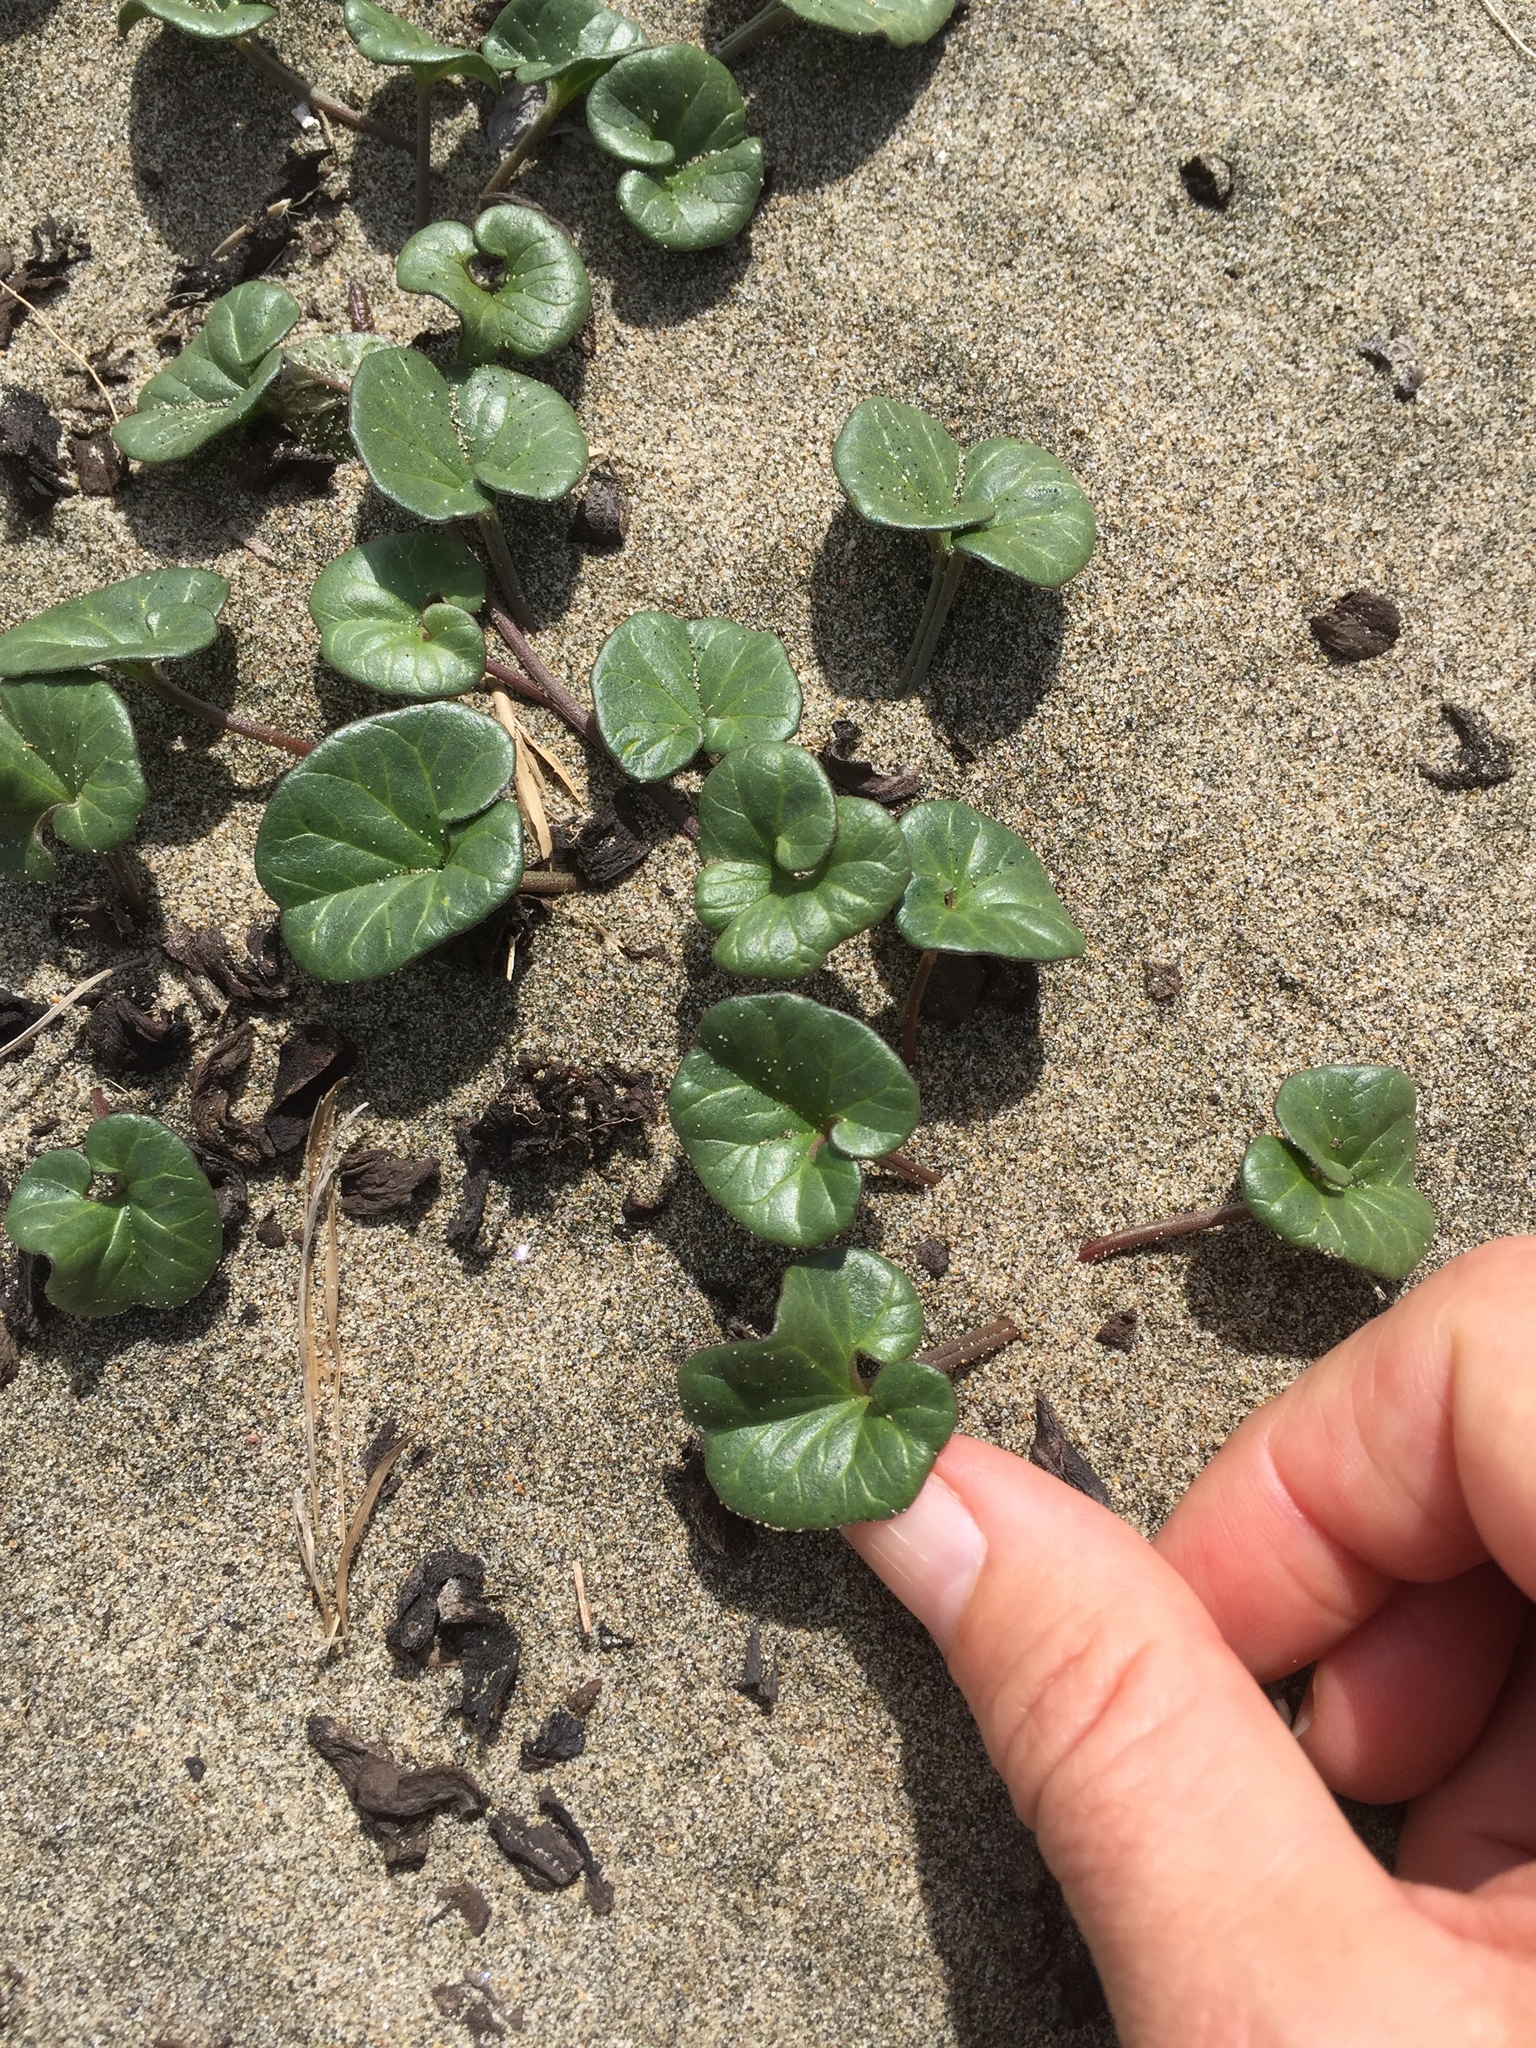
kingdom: Plantae
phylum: Tracheophyta
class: Magnoliopsida
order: Solanales
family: Convolvulaceae
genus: Calystegia
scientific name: Calystegia soldanella
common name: Sea bindweed
